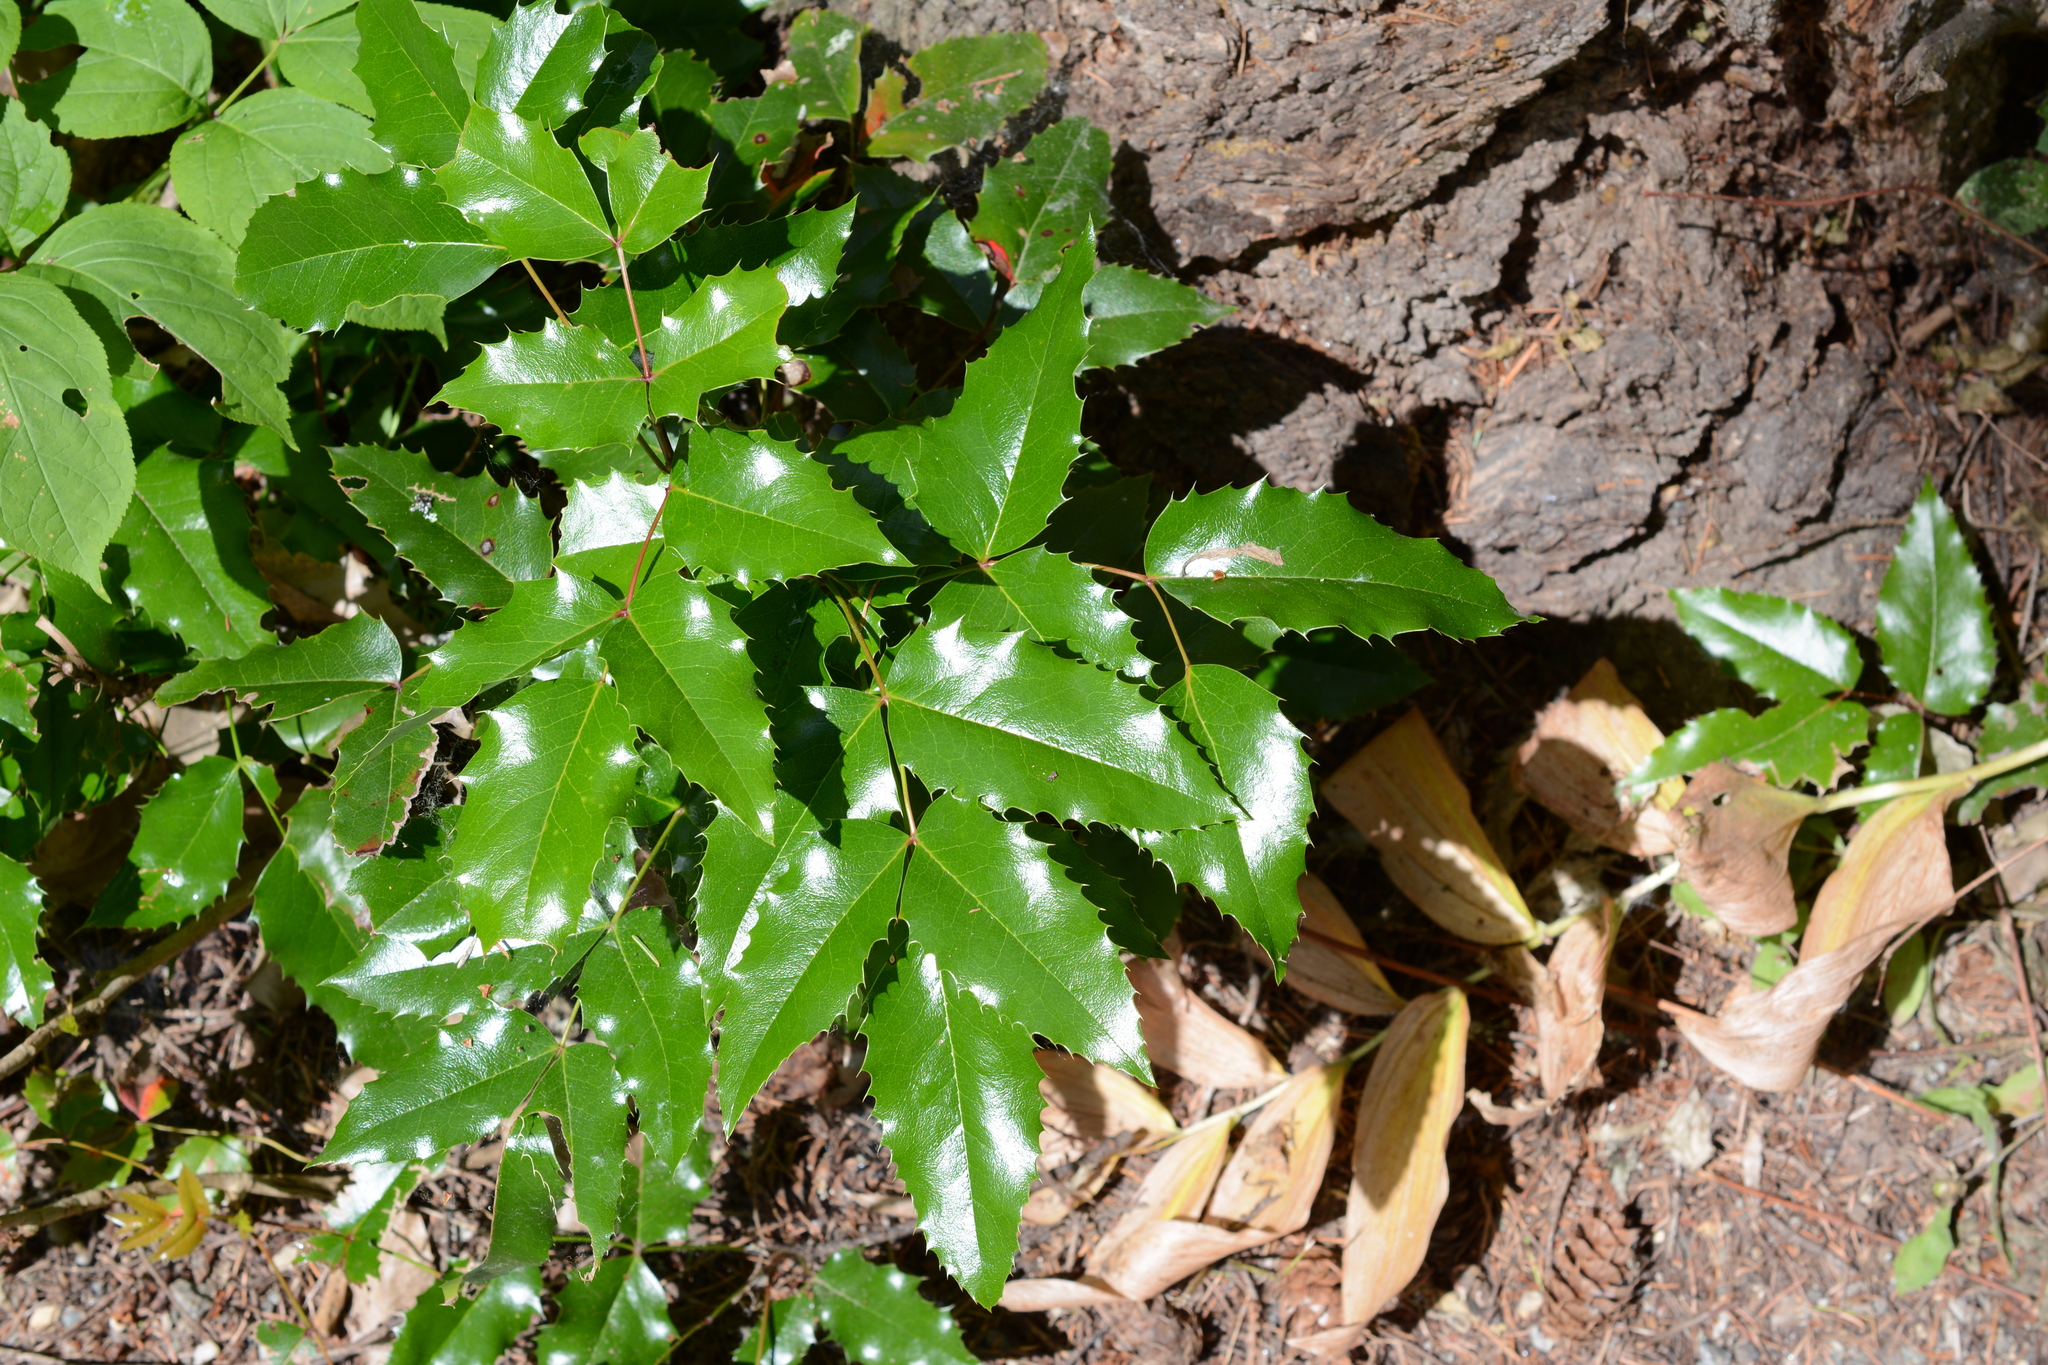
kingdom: Plantae
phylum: Tracheophyta
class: Magnoliopsida
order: Ranunculales
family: Berberidaceae
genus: Mahonia
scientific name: Mahonia aquifolium
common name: Oregon-grape
